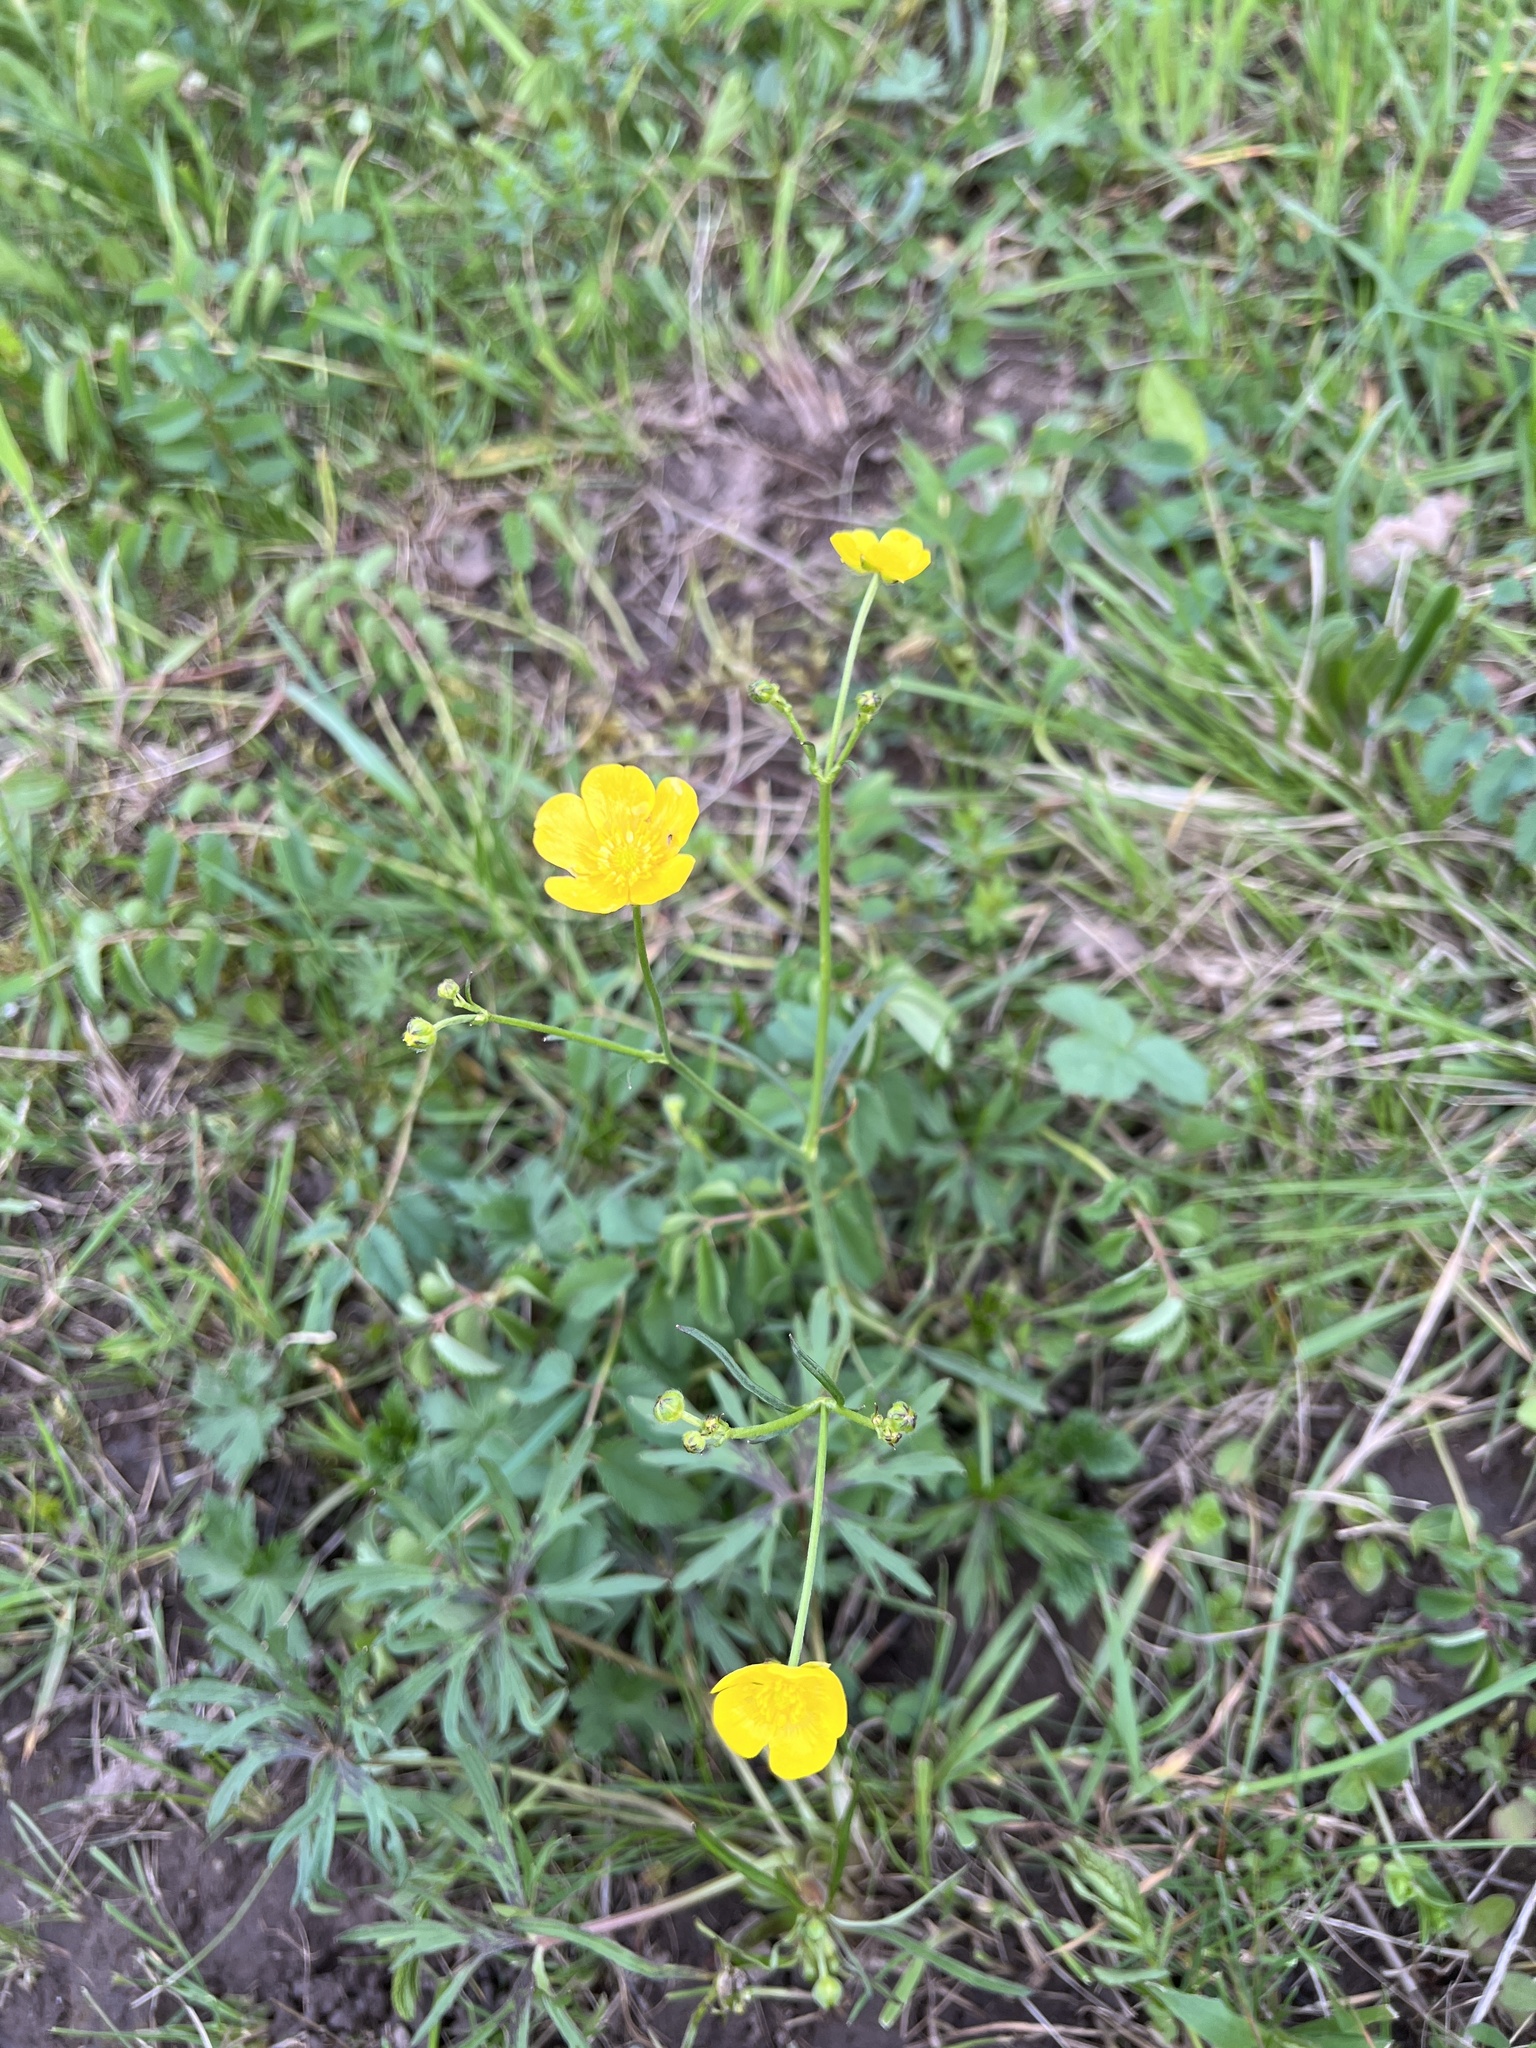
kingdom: Plantae
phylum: Tracheophyta
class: Magnoliopsida
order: Ranunculales
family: Ranunculaceae
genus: Ranunculus
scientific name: Ranunculus acris
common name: Meadow buttercup
